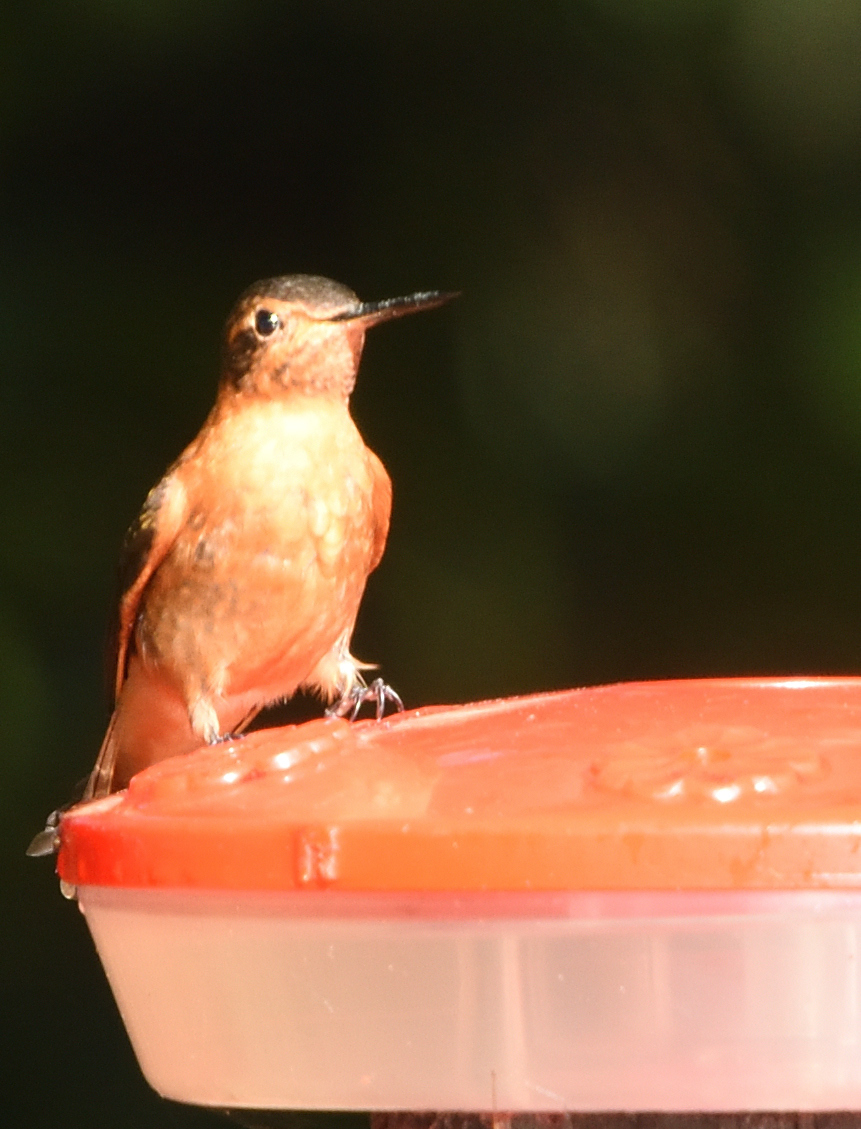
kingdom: Animalia
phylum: Chordata
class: Aves
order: Apodiformes
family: Trochilidae
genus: Aglaeactis
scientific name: Aglaeactis cupripennis
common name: Shining sunbeam
